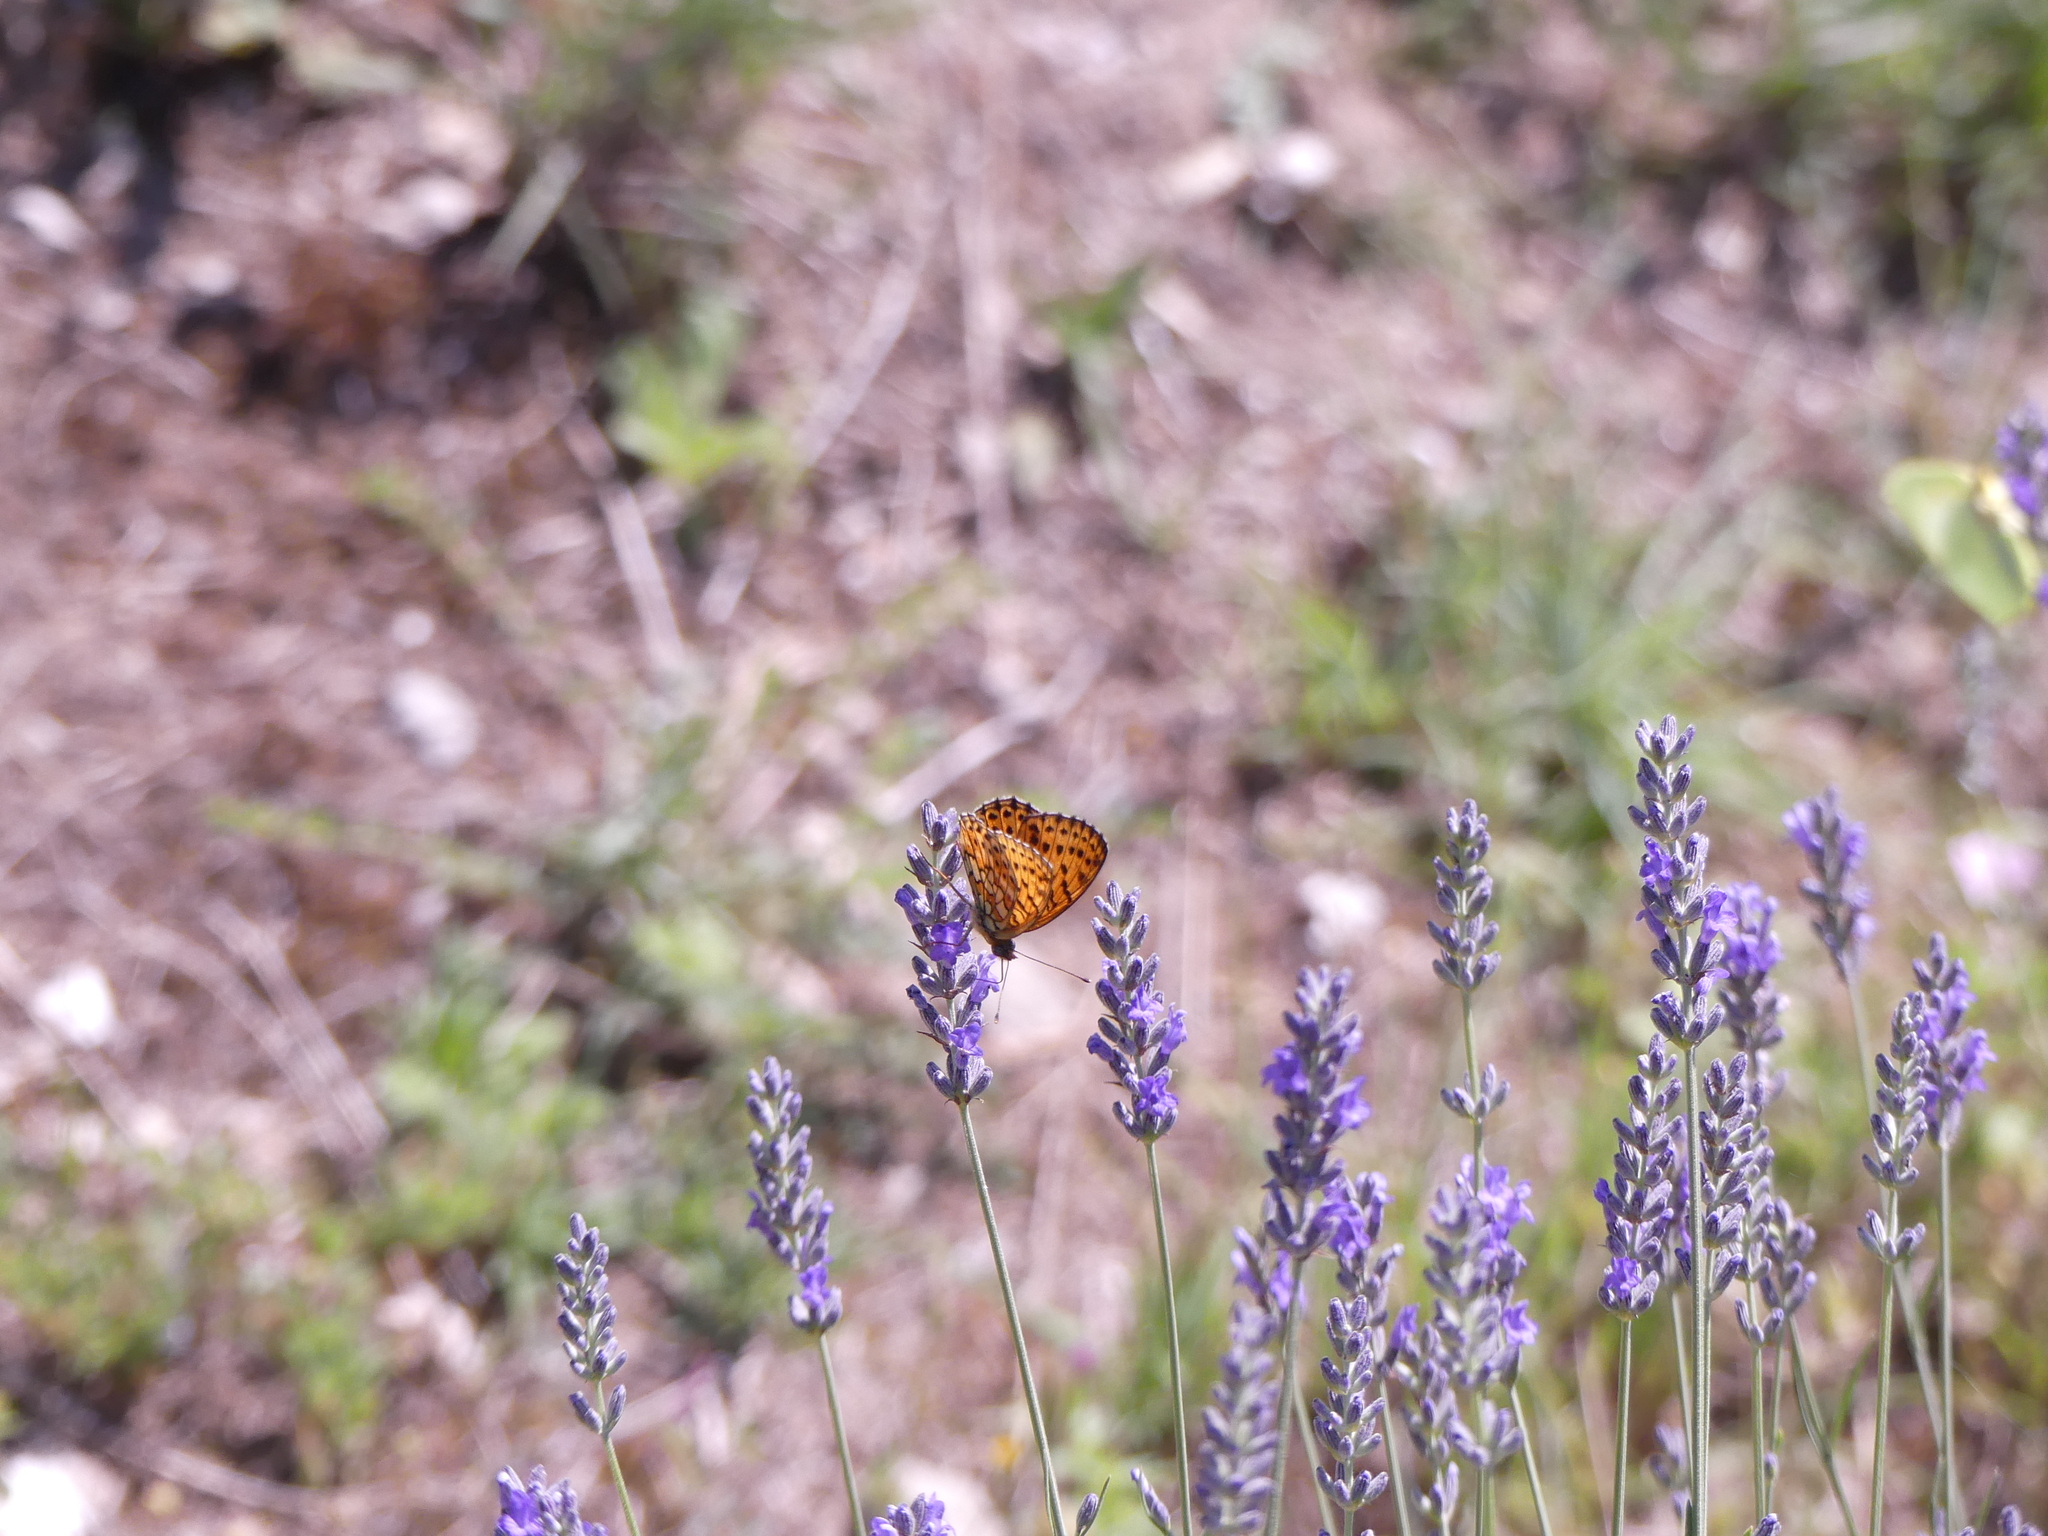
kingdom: Animalia
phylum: Arthropoda
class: Insecta
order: Lepidoptera
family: Nymphalidae
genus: Brenthis
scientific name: Brenthis hecate
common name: Twin-spot fritillary
